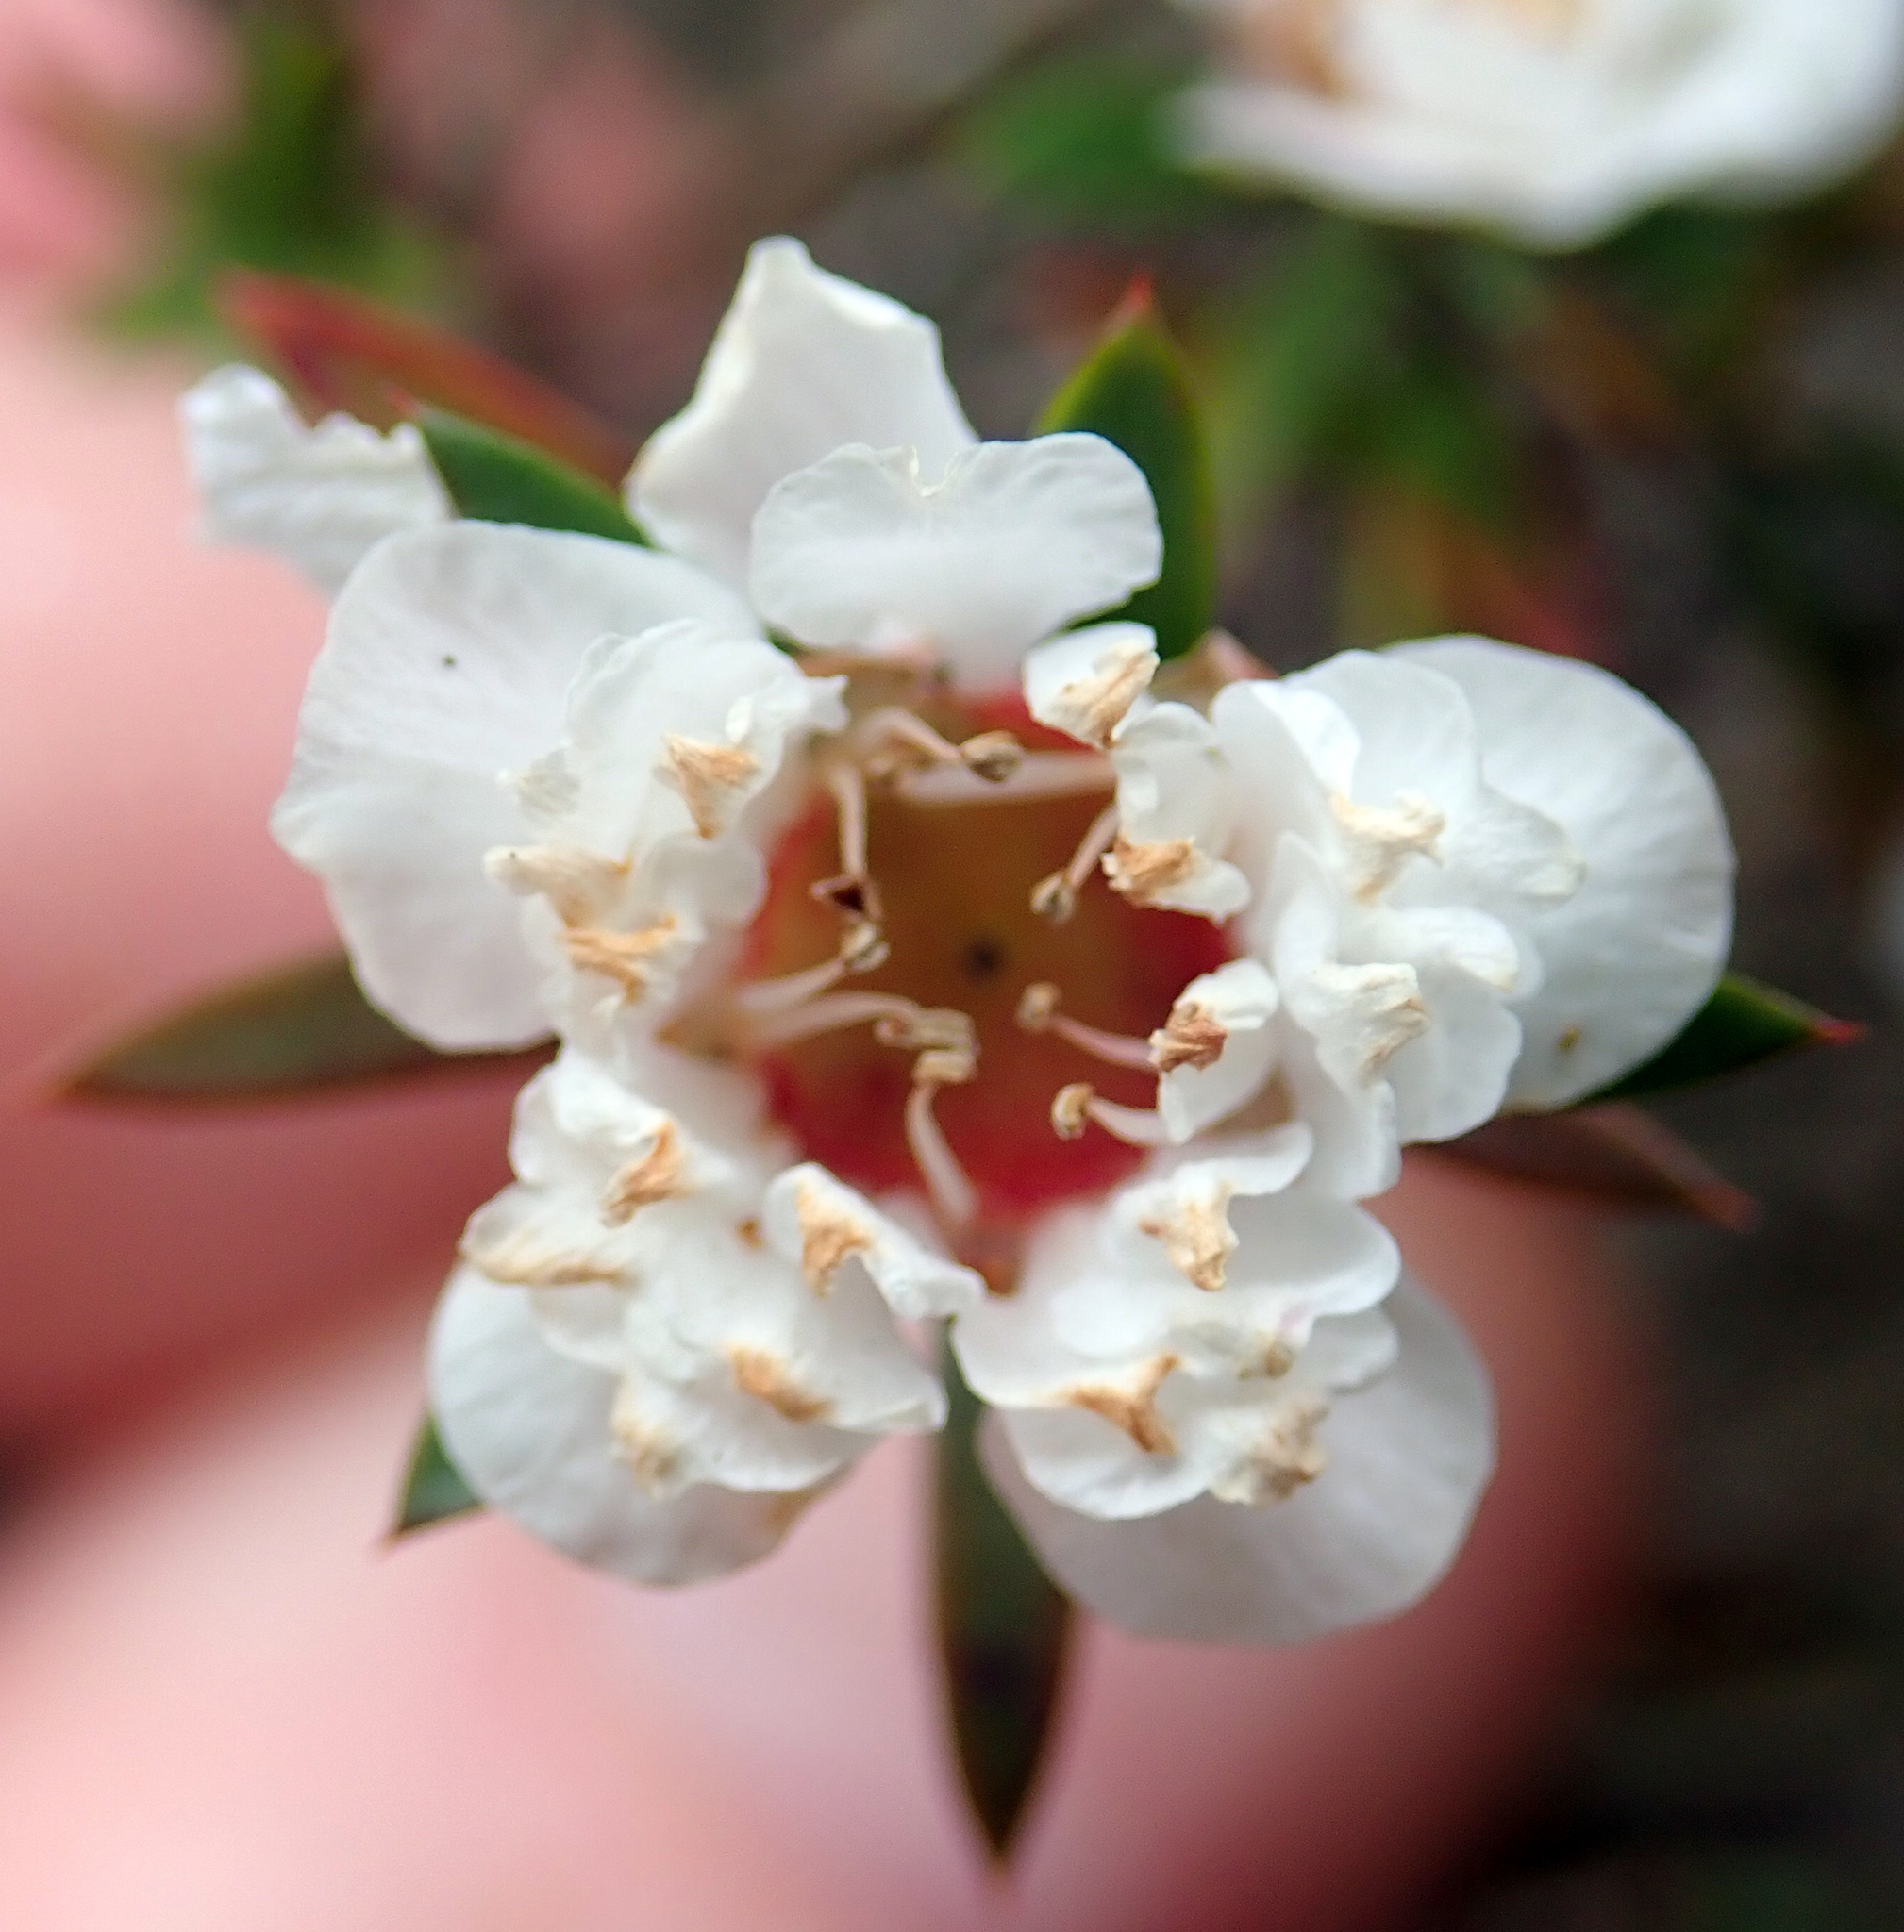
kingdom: Plantae
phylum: Tracheophyta
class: Magnoliopsida
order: Myrtales
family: Myrtaceae
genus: Leptospermum
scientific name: Leptospermum scoparium
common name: Broom tea-tree
